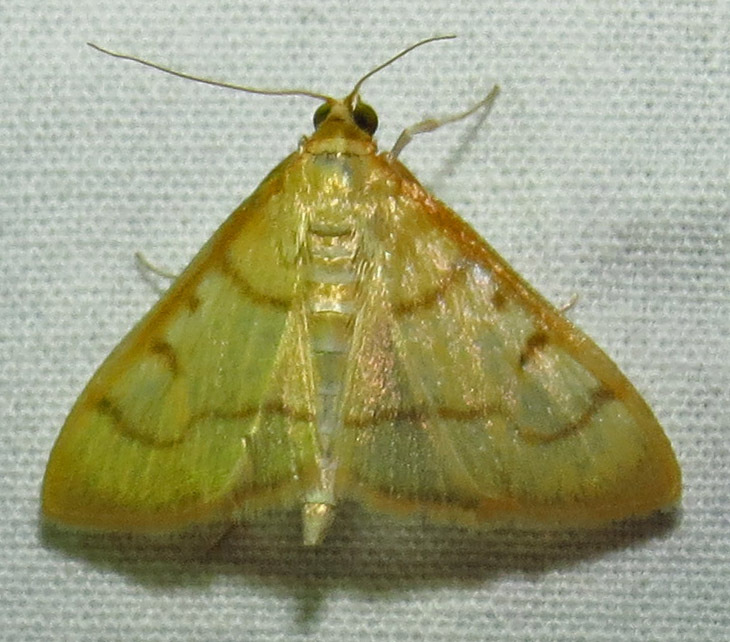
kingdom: Animalia
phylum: Arthropoda
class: Insecta
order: Lepidoptera
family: Crambidae
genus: Neohelvibotys
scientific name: Neohelvibotys neohelvialis
